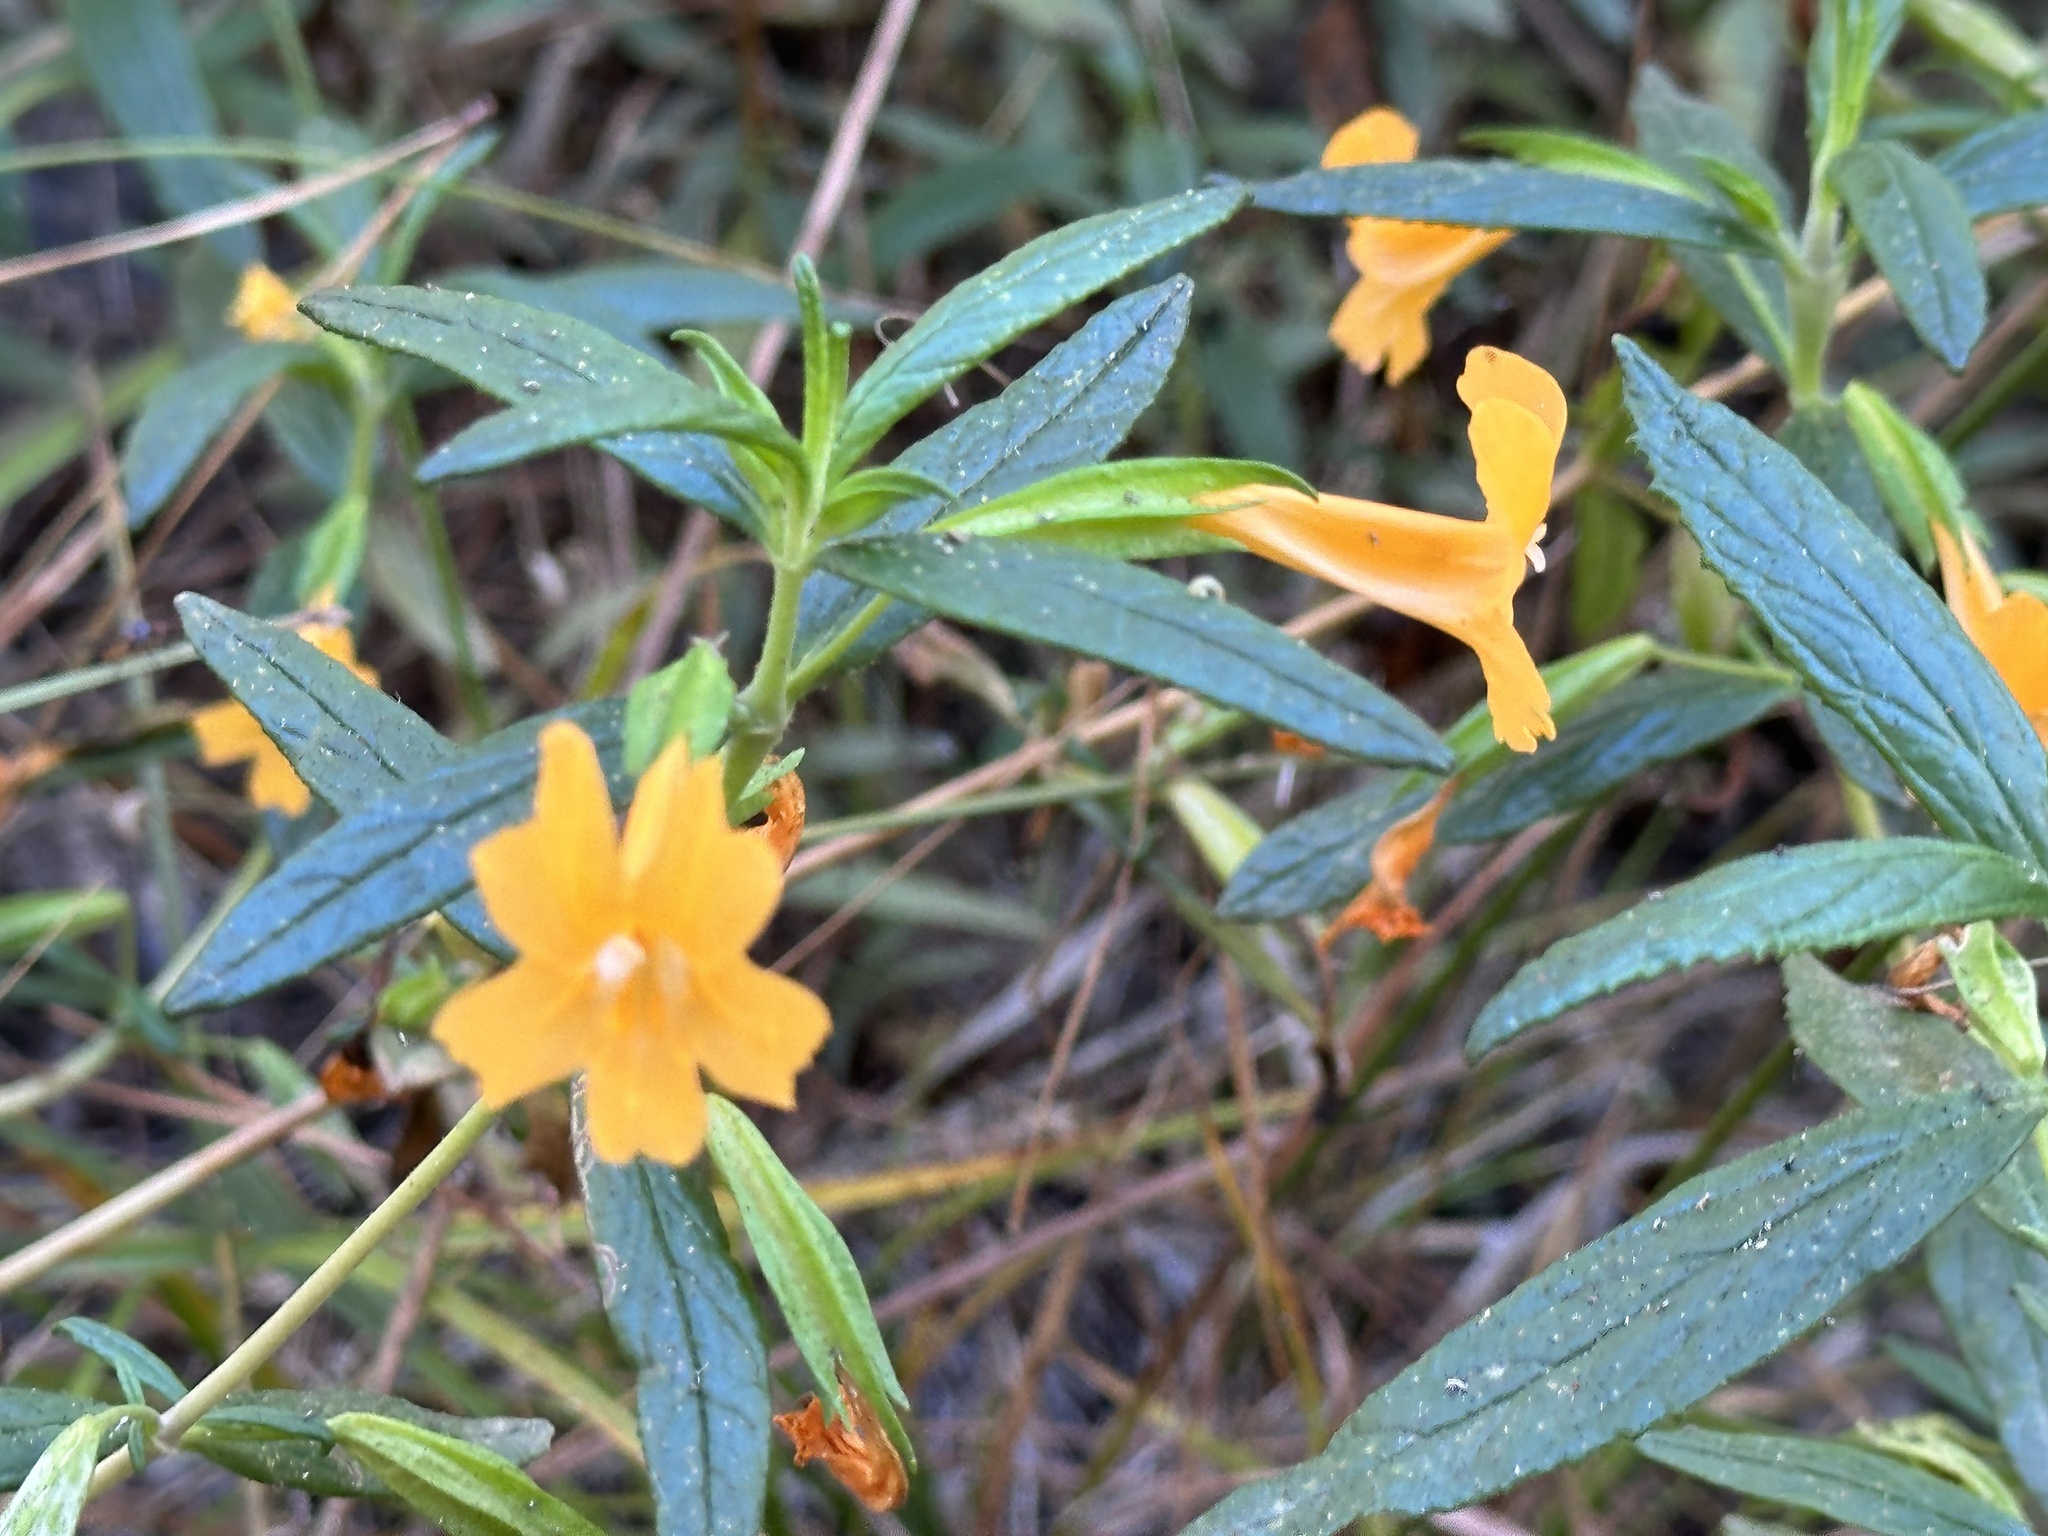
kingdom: Plantae
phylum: Tracheophyta
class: Magnoliopsida
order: Lamiales
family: Phrymaceae
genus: Diplacus
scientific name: Diplacus aurantiacus
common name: Bush monkey-flower
